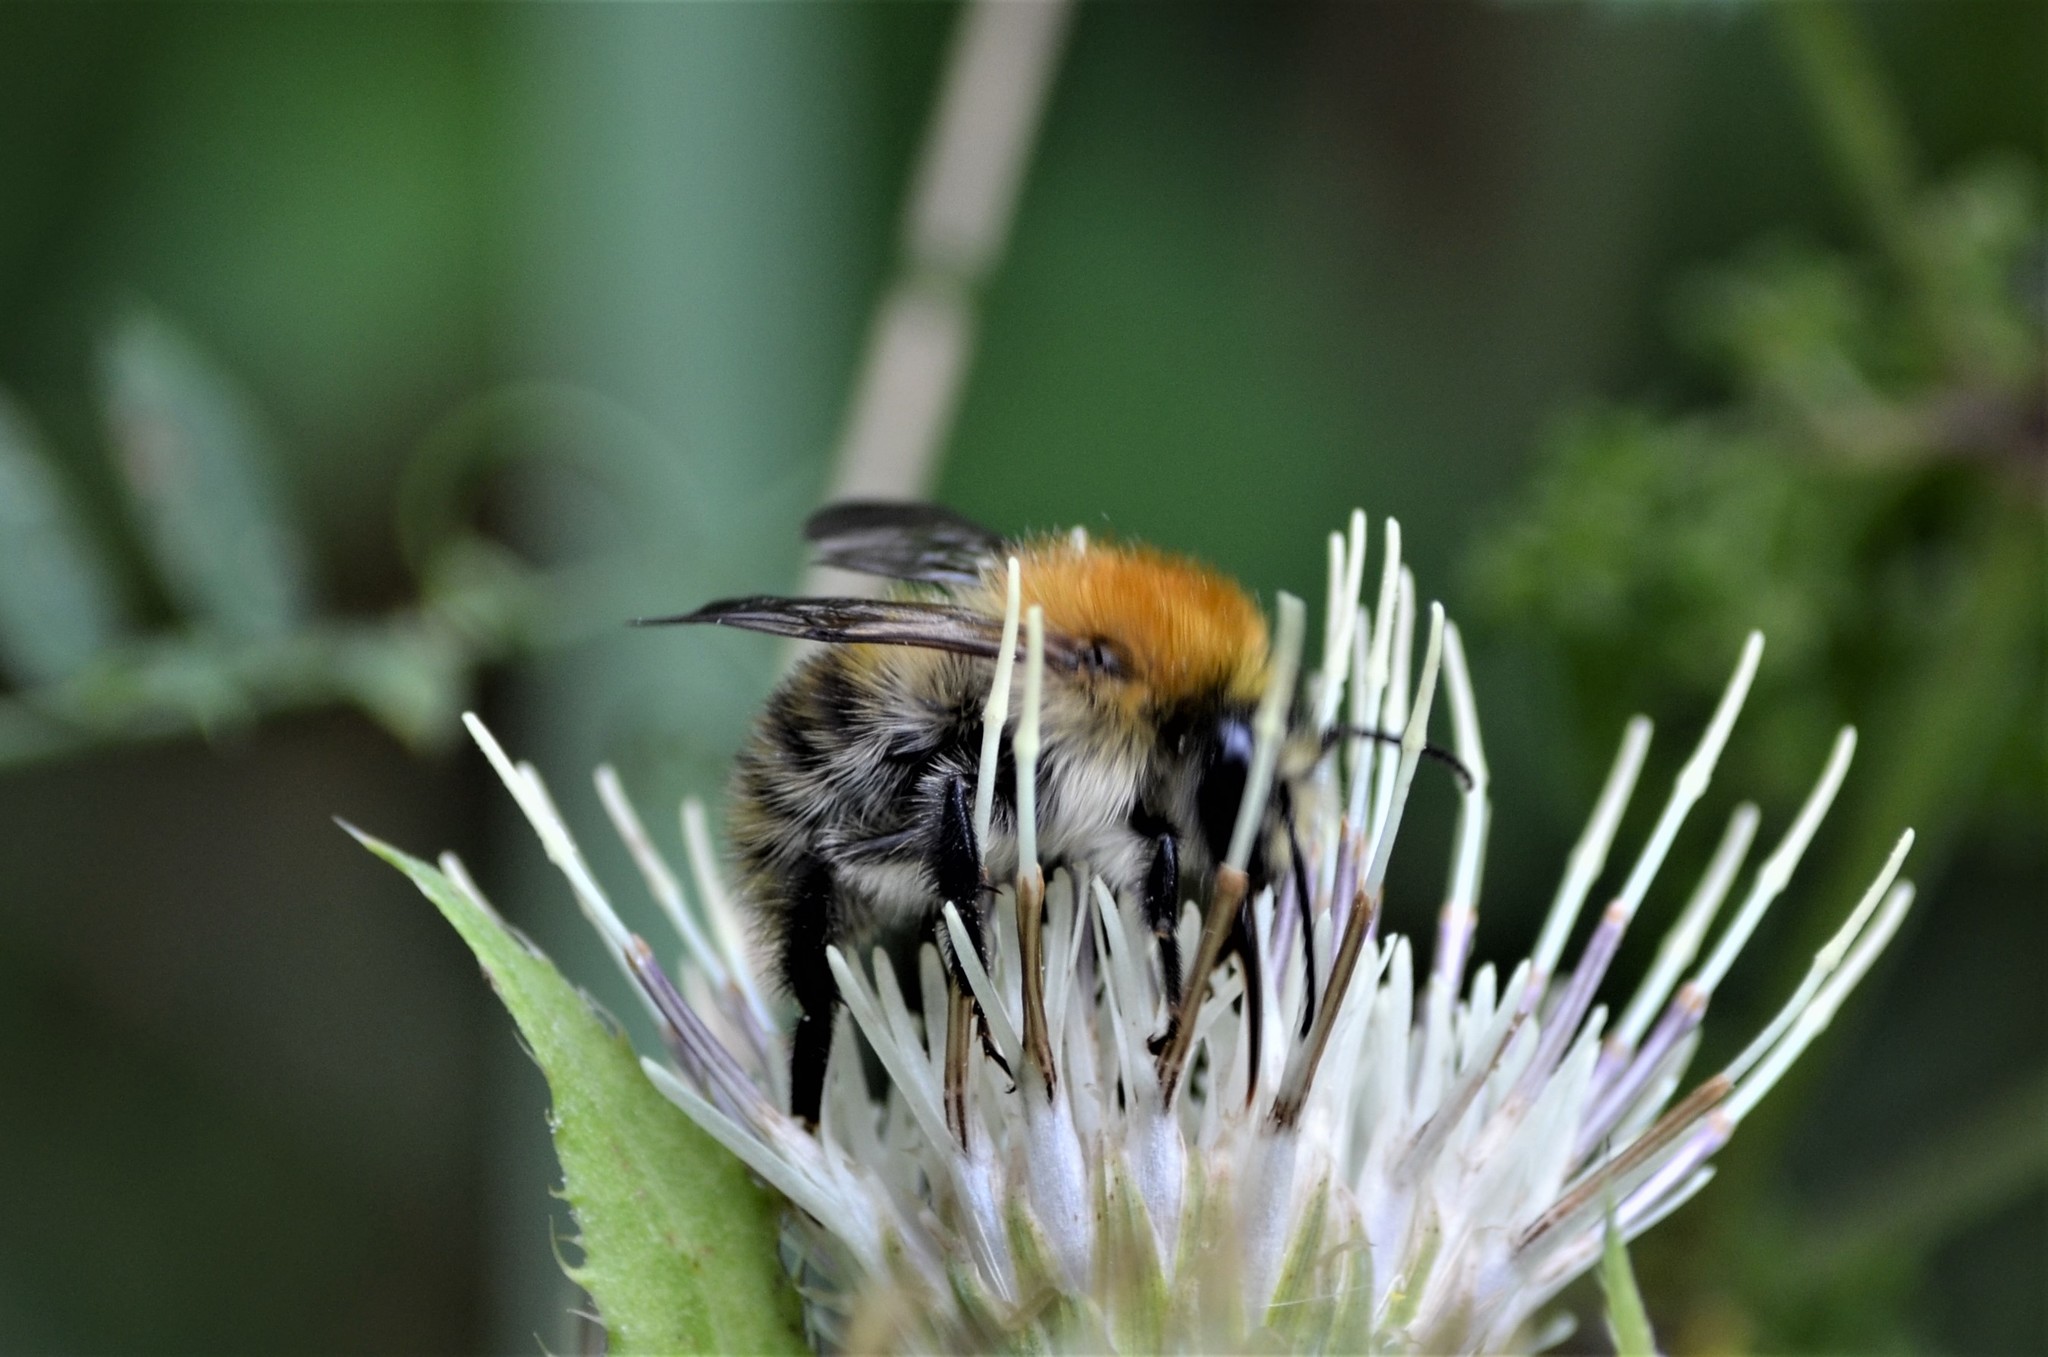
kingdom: Animalia
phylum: Arthropoda
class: Insecta
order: Hymenoptera
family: Apidae
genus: Bombus
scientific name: Bombus pascuorum
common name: Common carder bee
